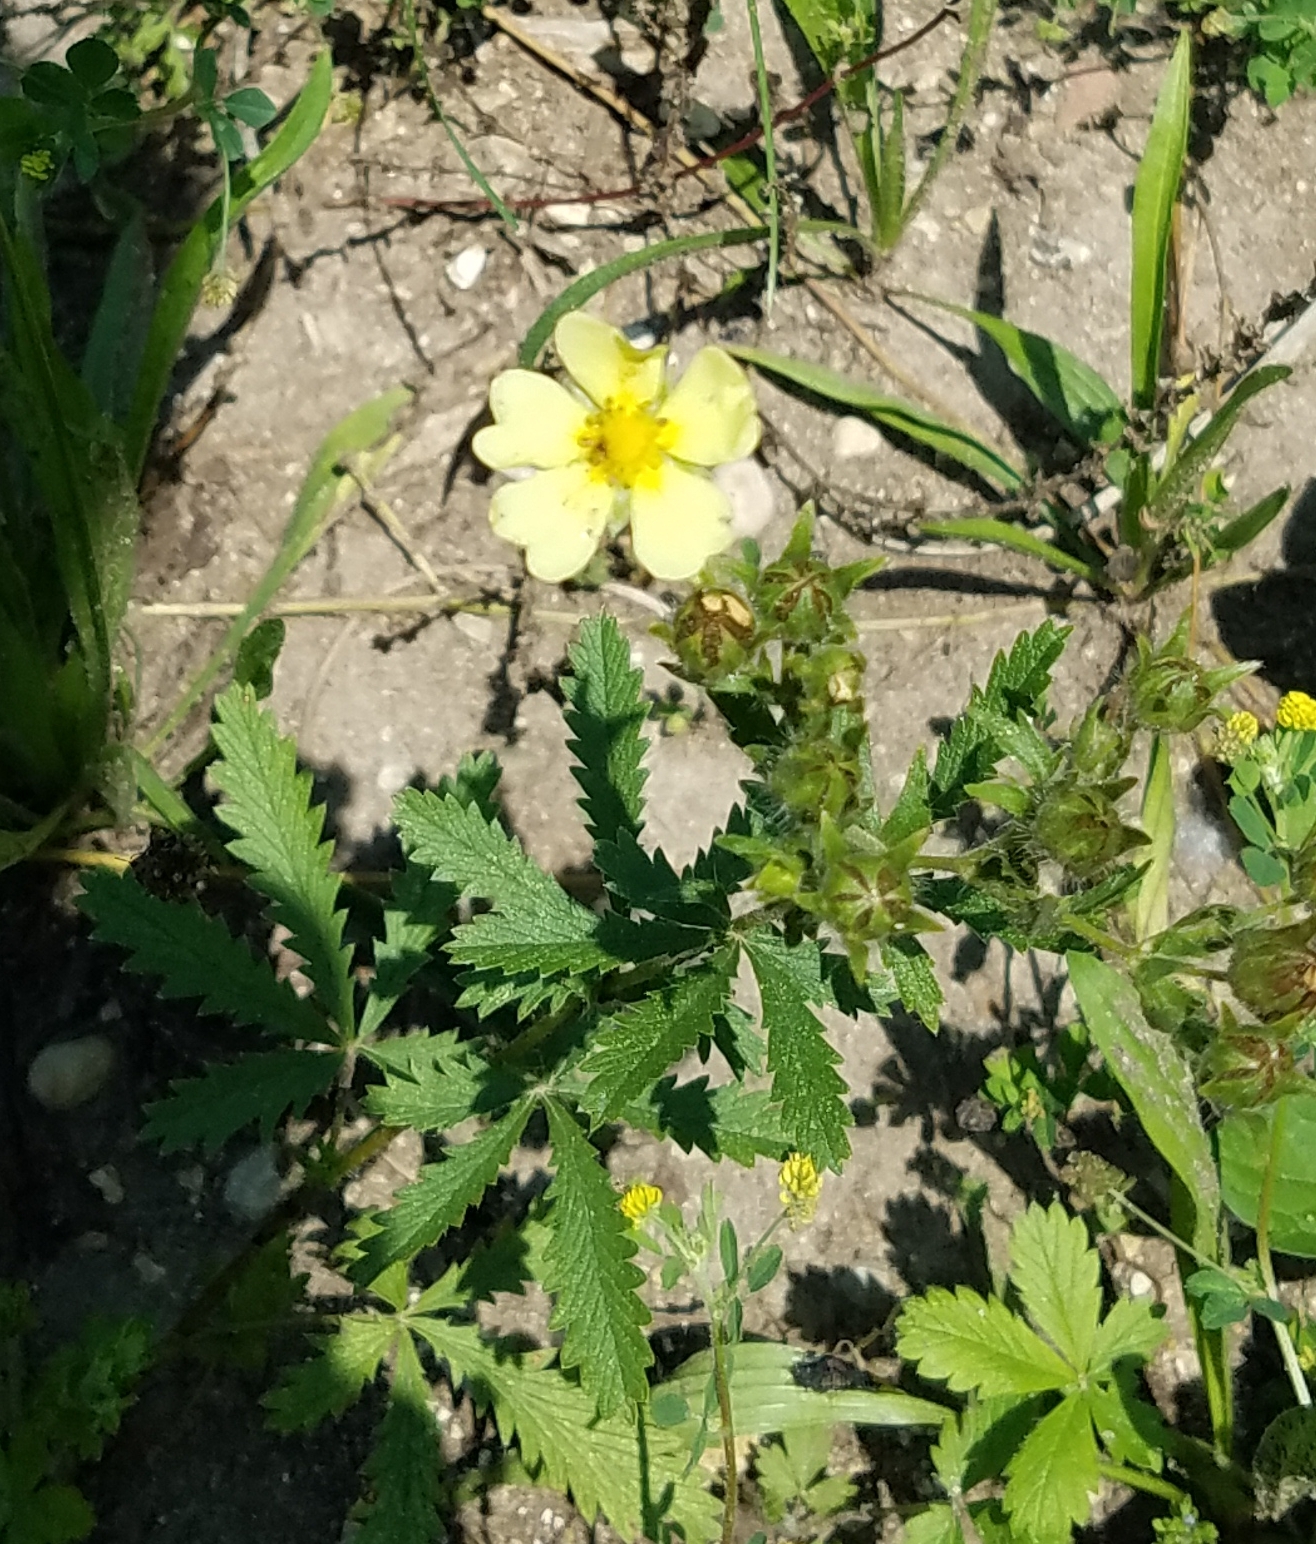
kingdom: Plantae
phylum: Tracheophyta
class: Magnoliopsida
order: Rosales
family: Rosaceae
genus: Potentilla
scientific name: Potentilla recta
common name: Sulphur cinquefoil
